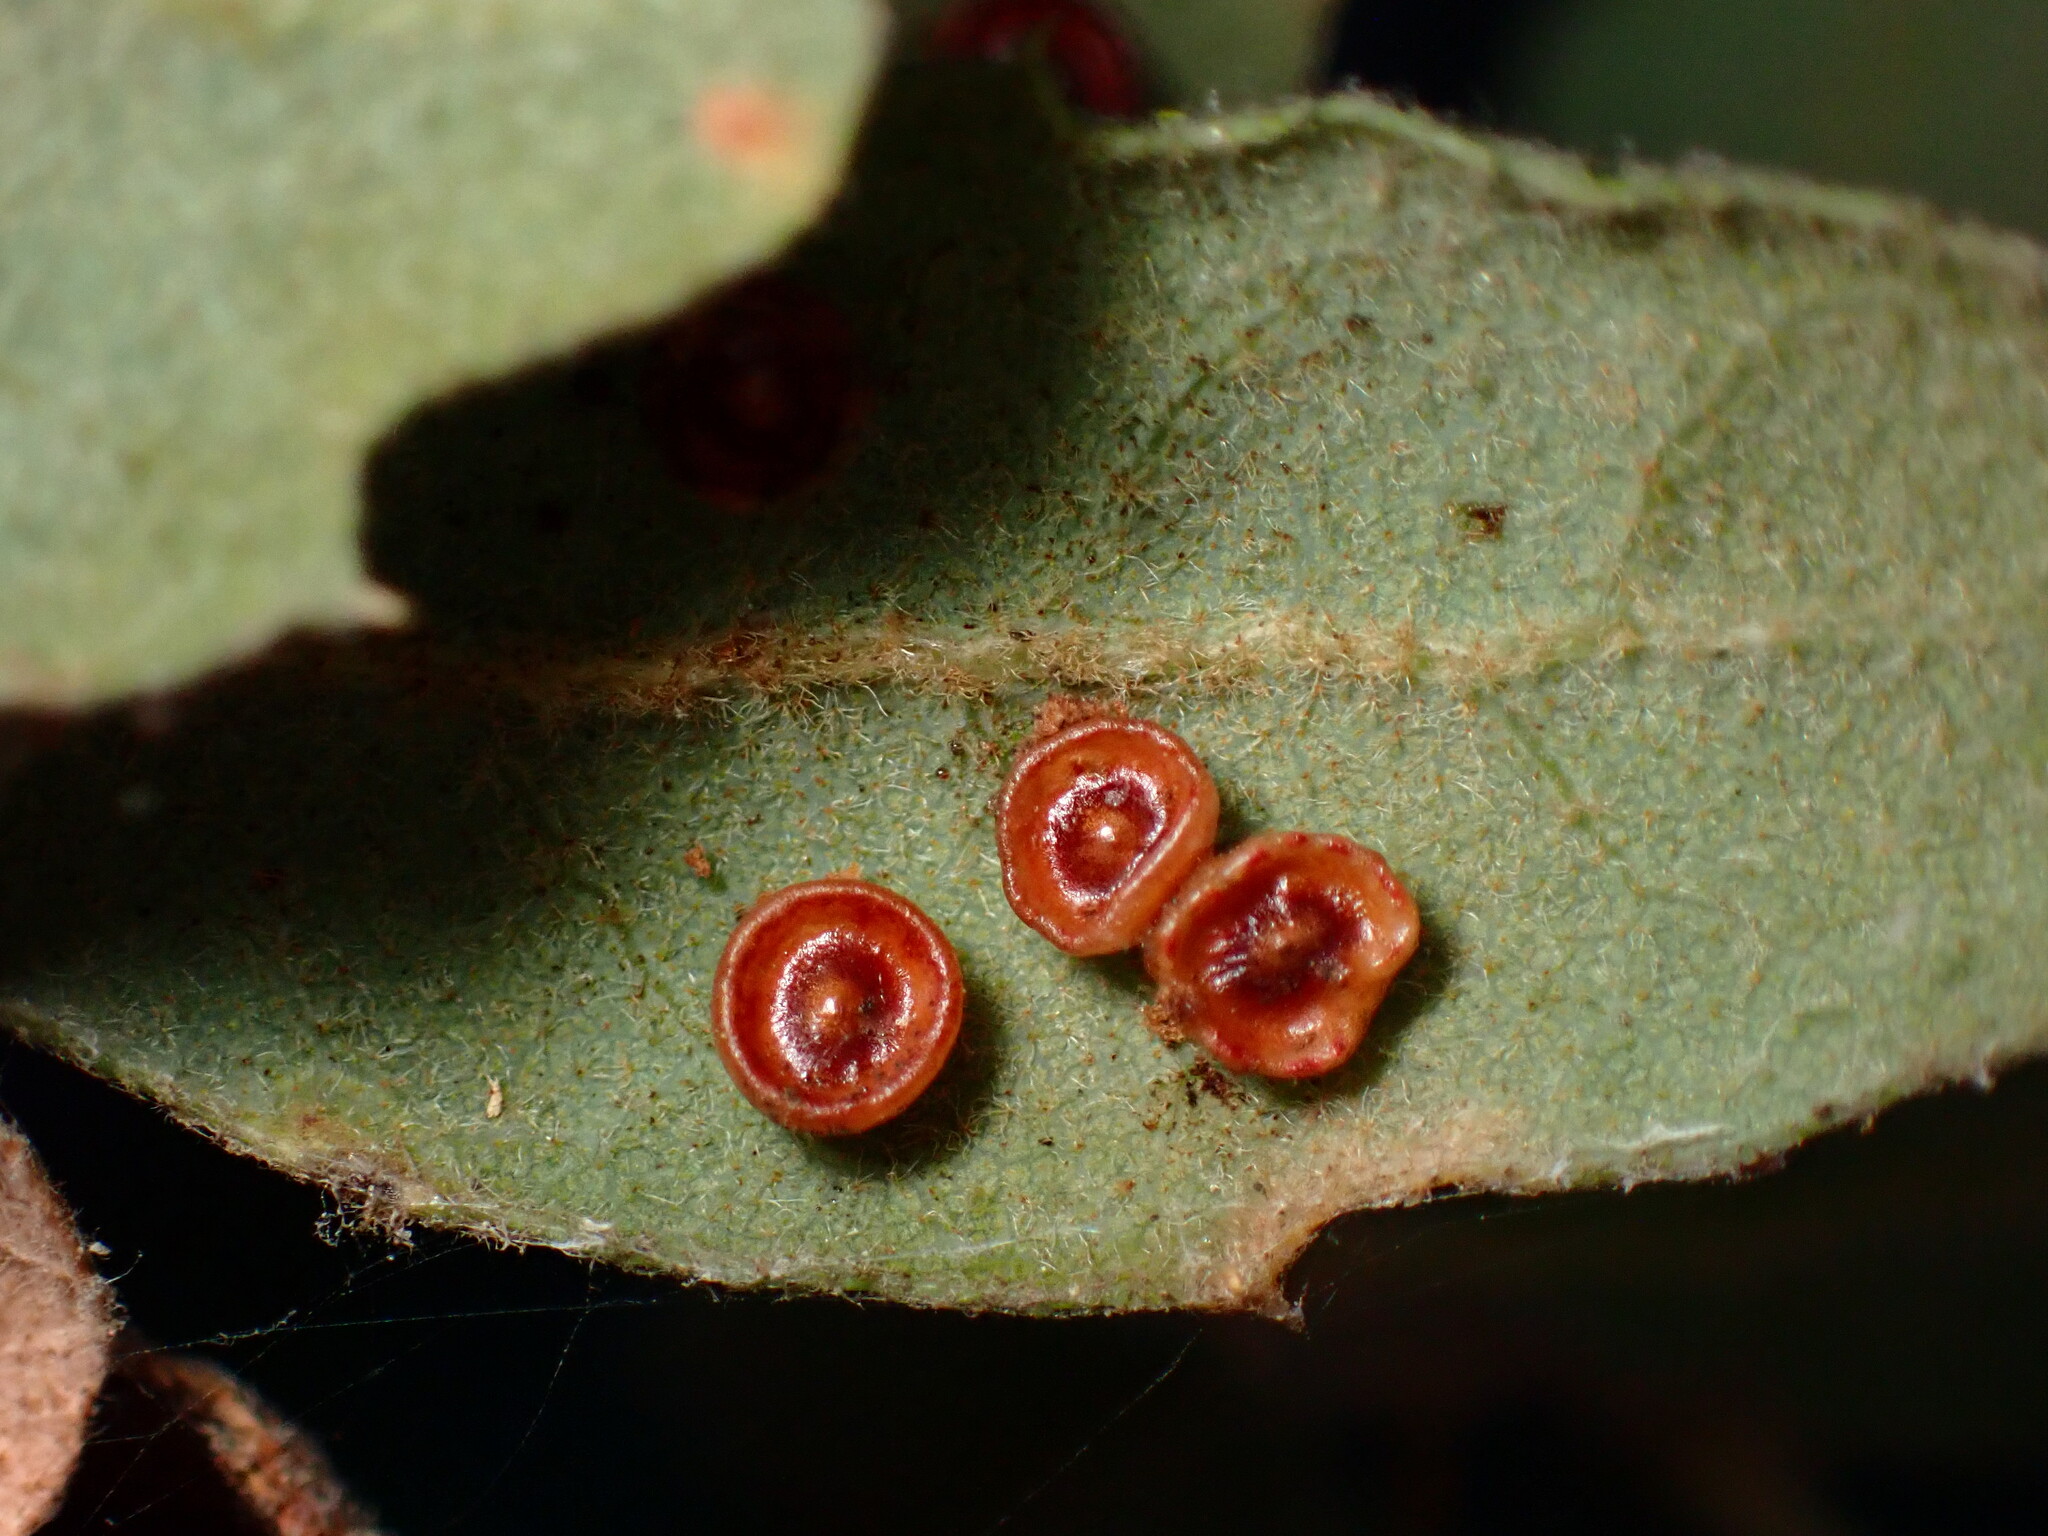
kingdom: Animalia
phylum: Arthropoda
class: Insecta
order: Hymenoptera
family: Cynipidae
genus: Andricus
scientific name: Andricus
